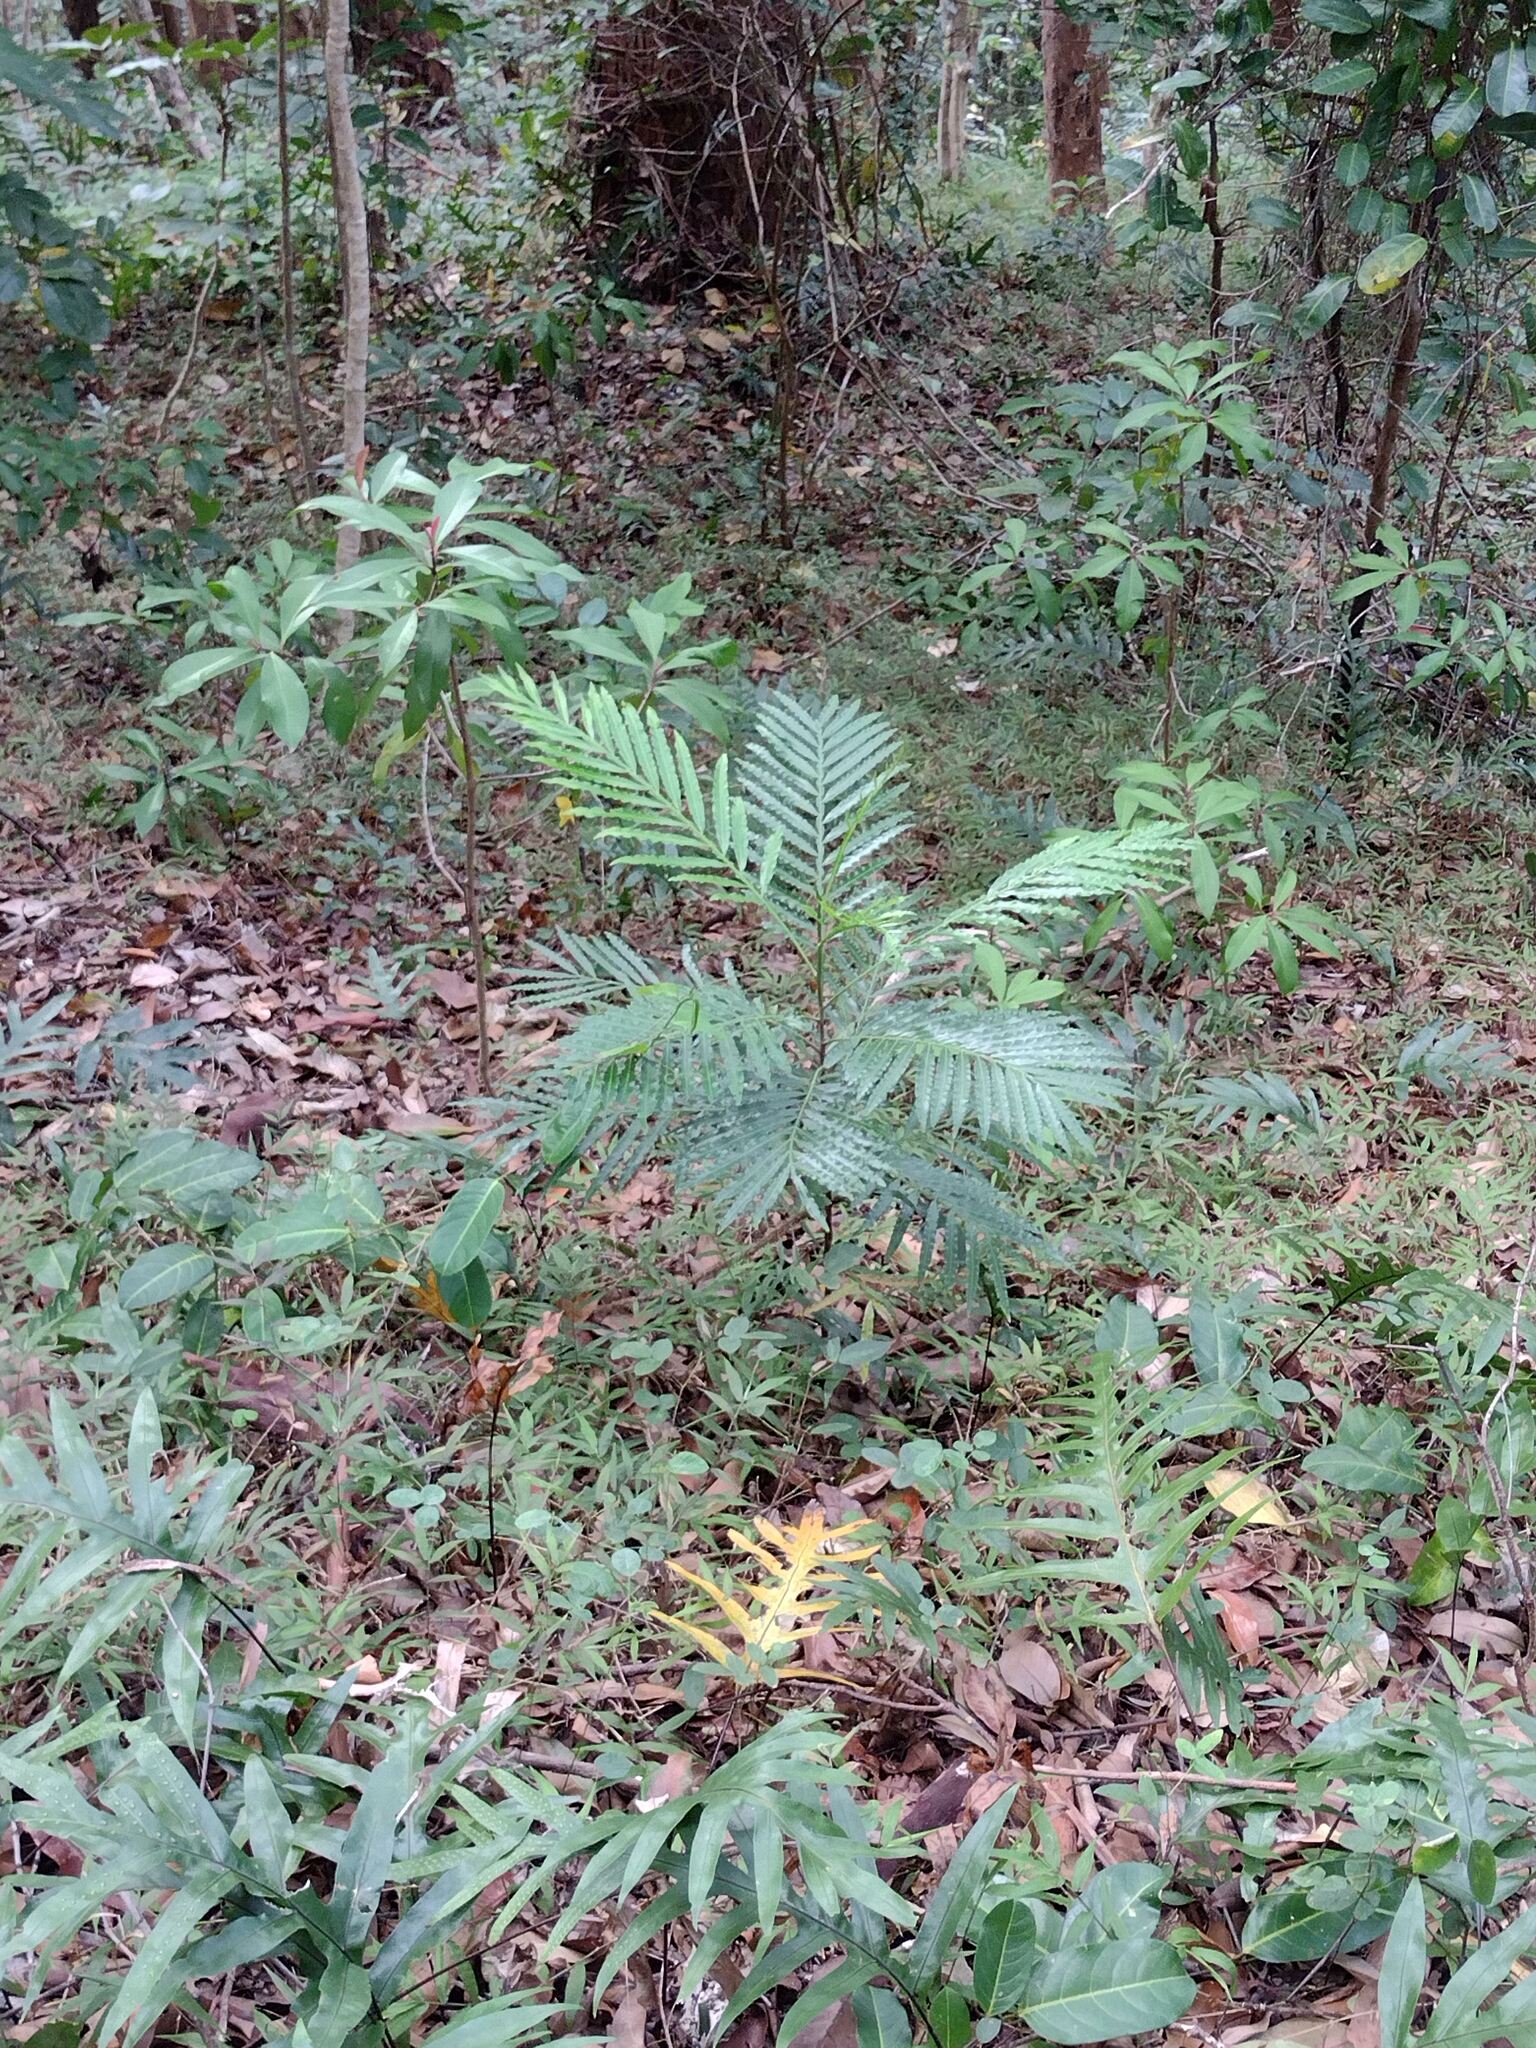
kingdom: Plantae
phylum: Tracheophyta
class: Magnoliopsida
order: Sapindales
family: Sapindaceae
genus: Filicium
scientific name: Filicium decipiens
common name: Ferntree
